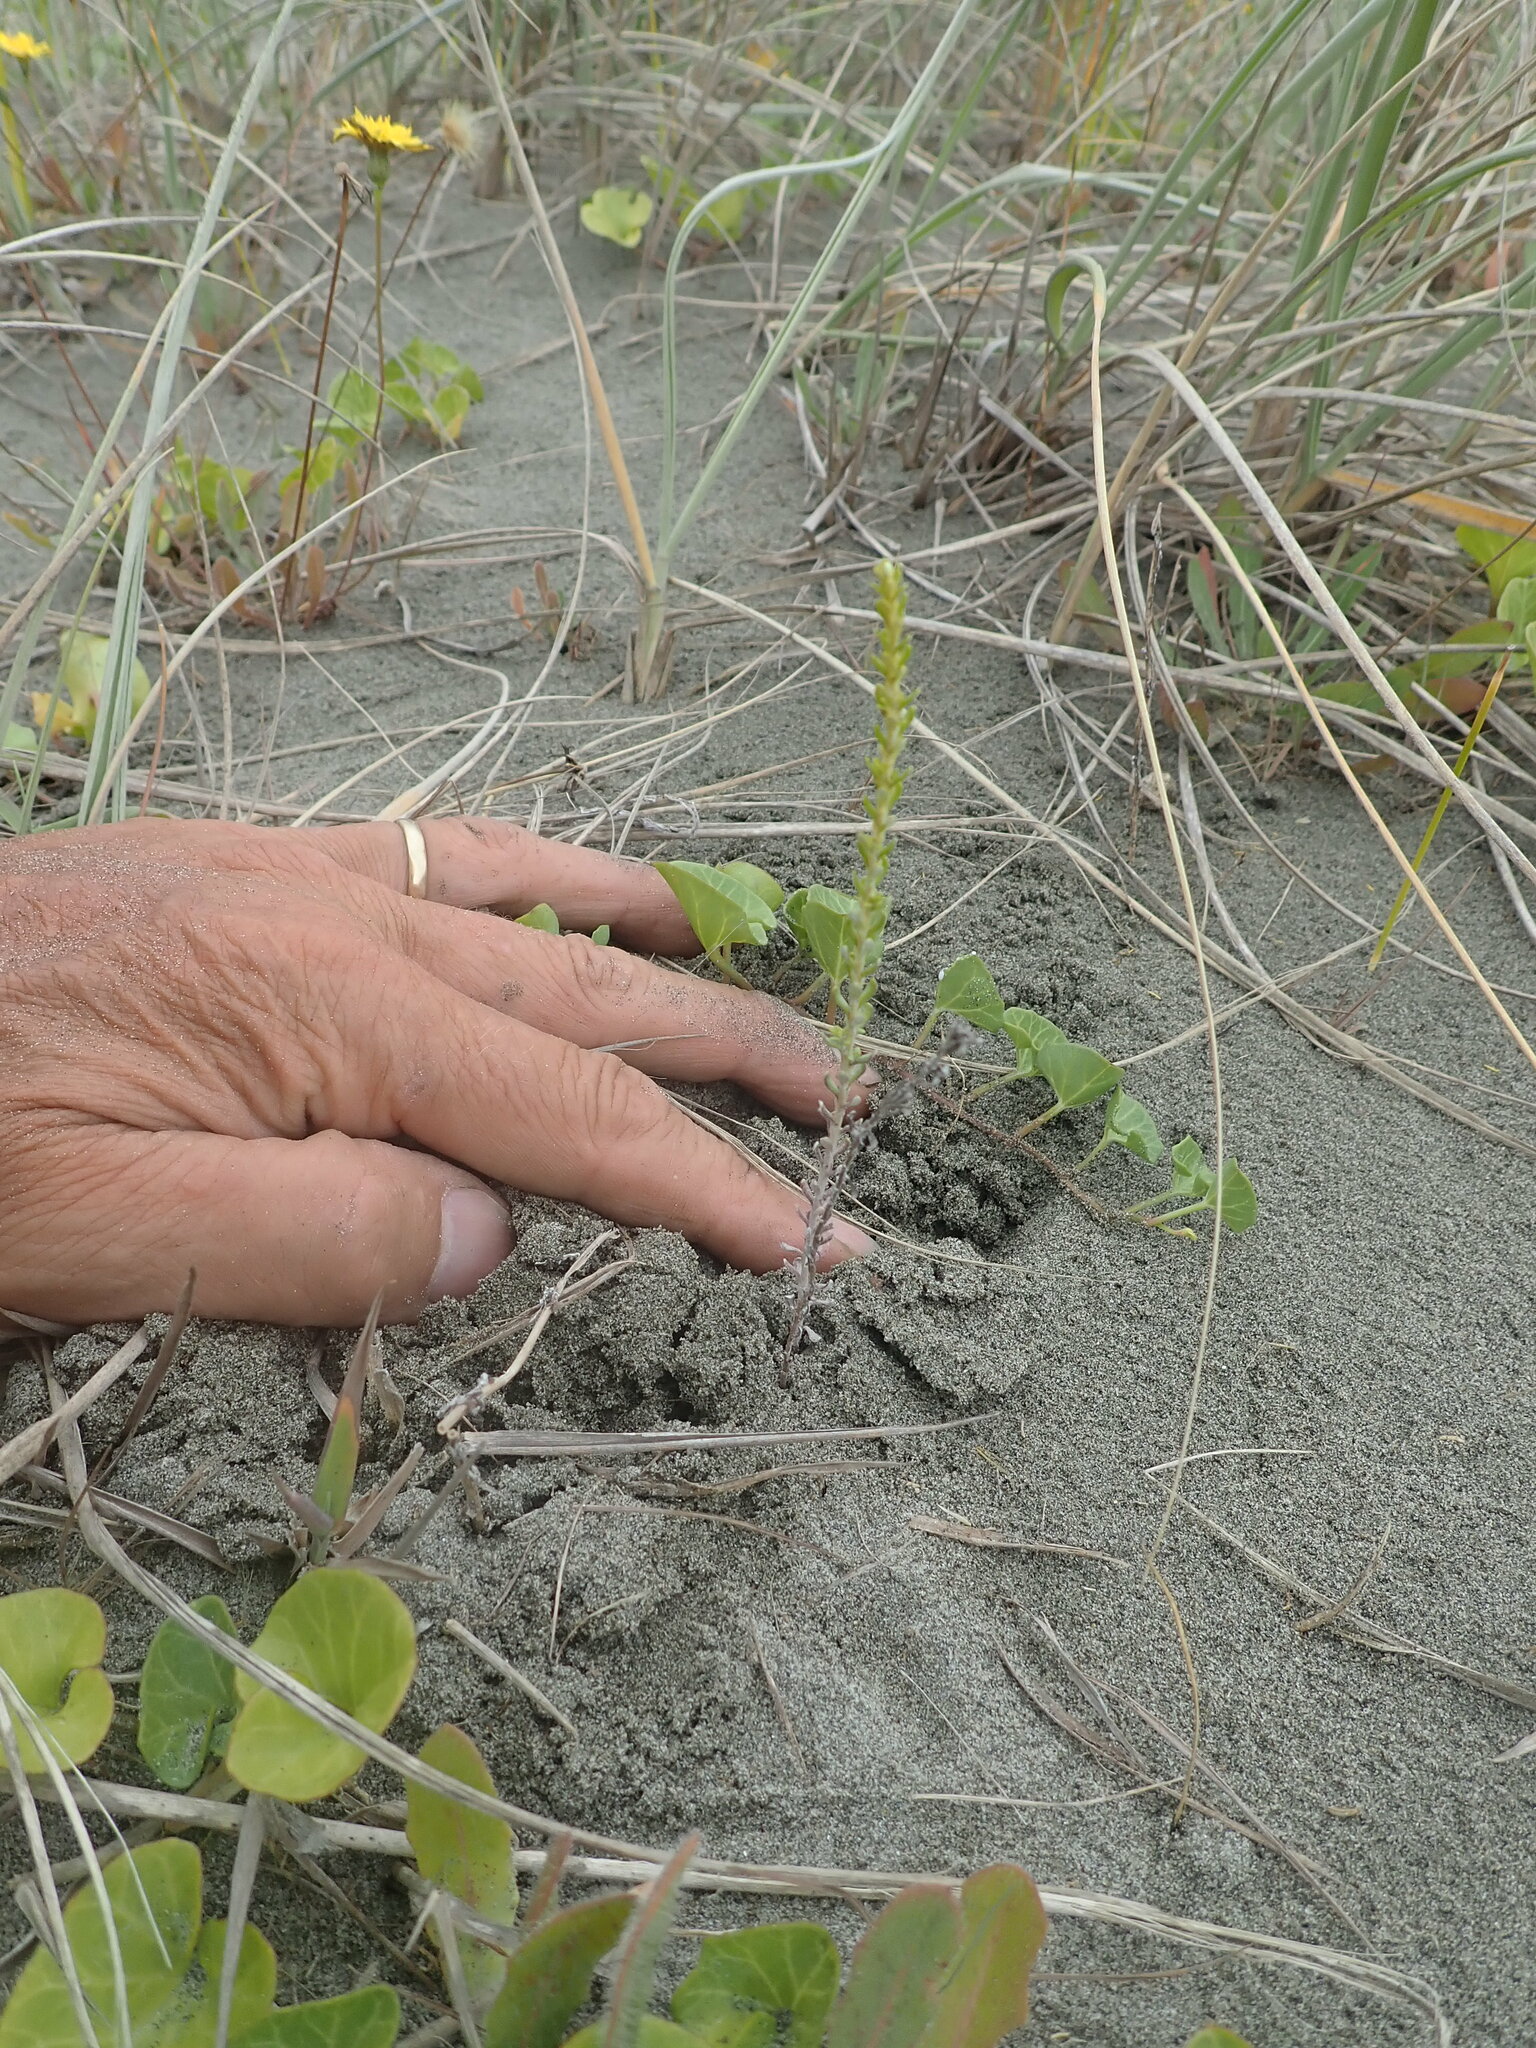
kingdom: Plantae
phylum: Tracheophyta
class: Magnoliopsida
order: Asterales
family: Asteraceae
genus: Ozothamnus
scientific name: Ozothamnus leptophyllus
